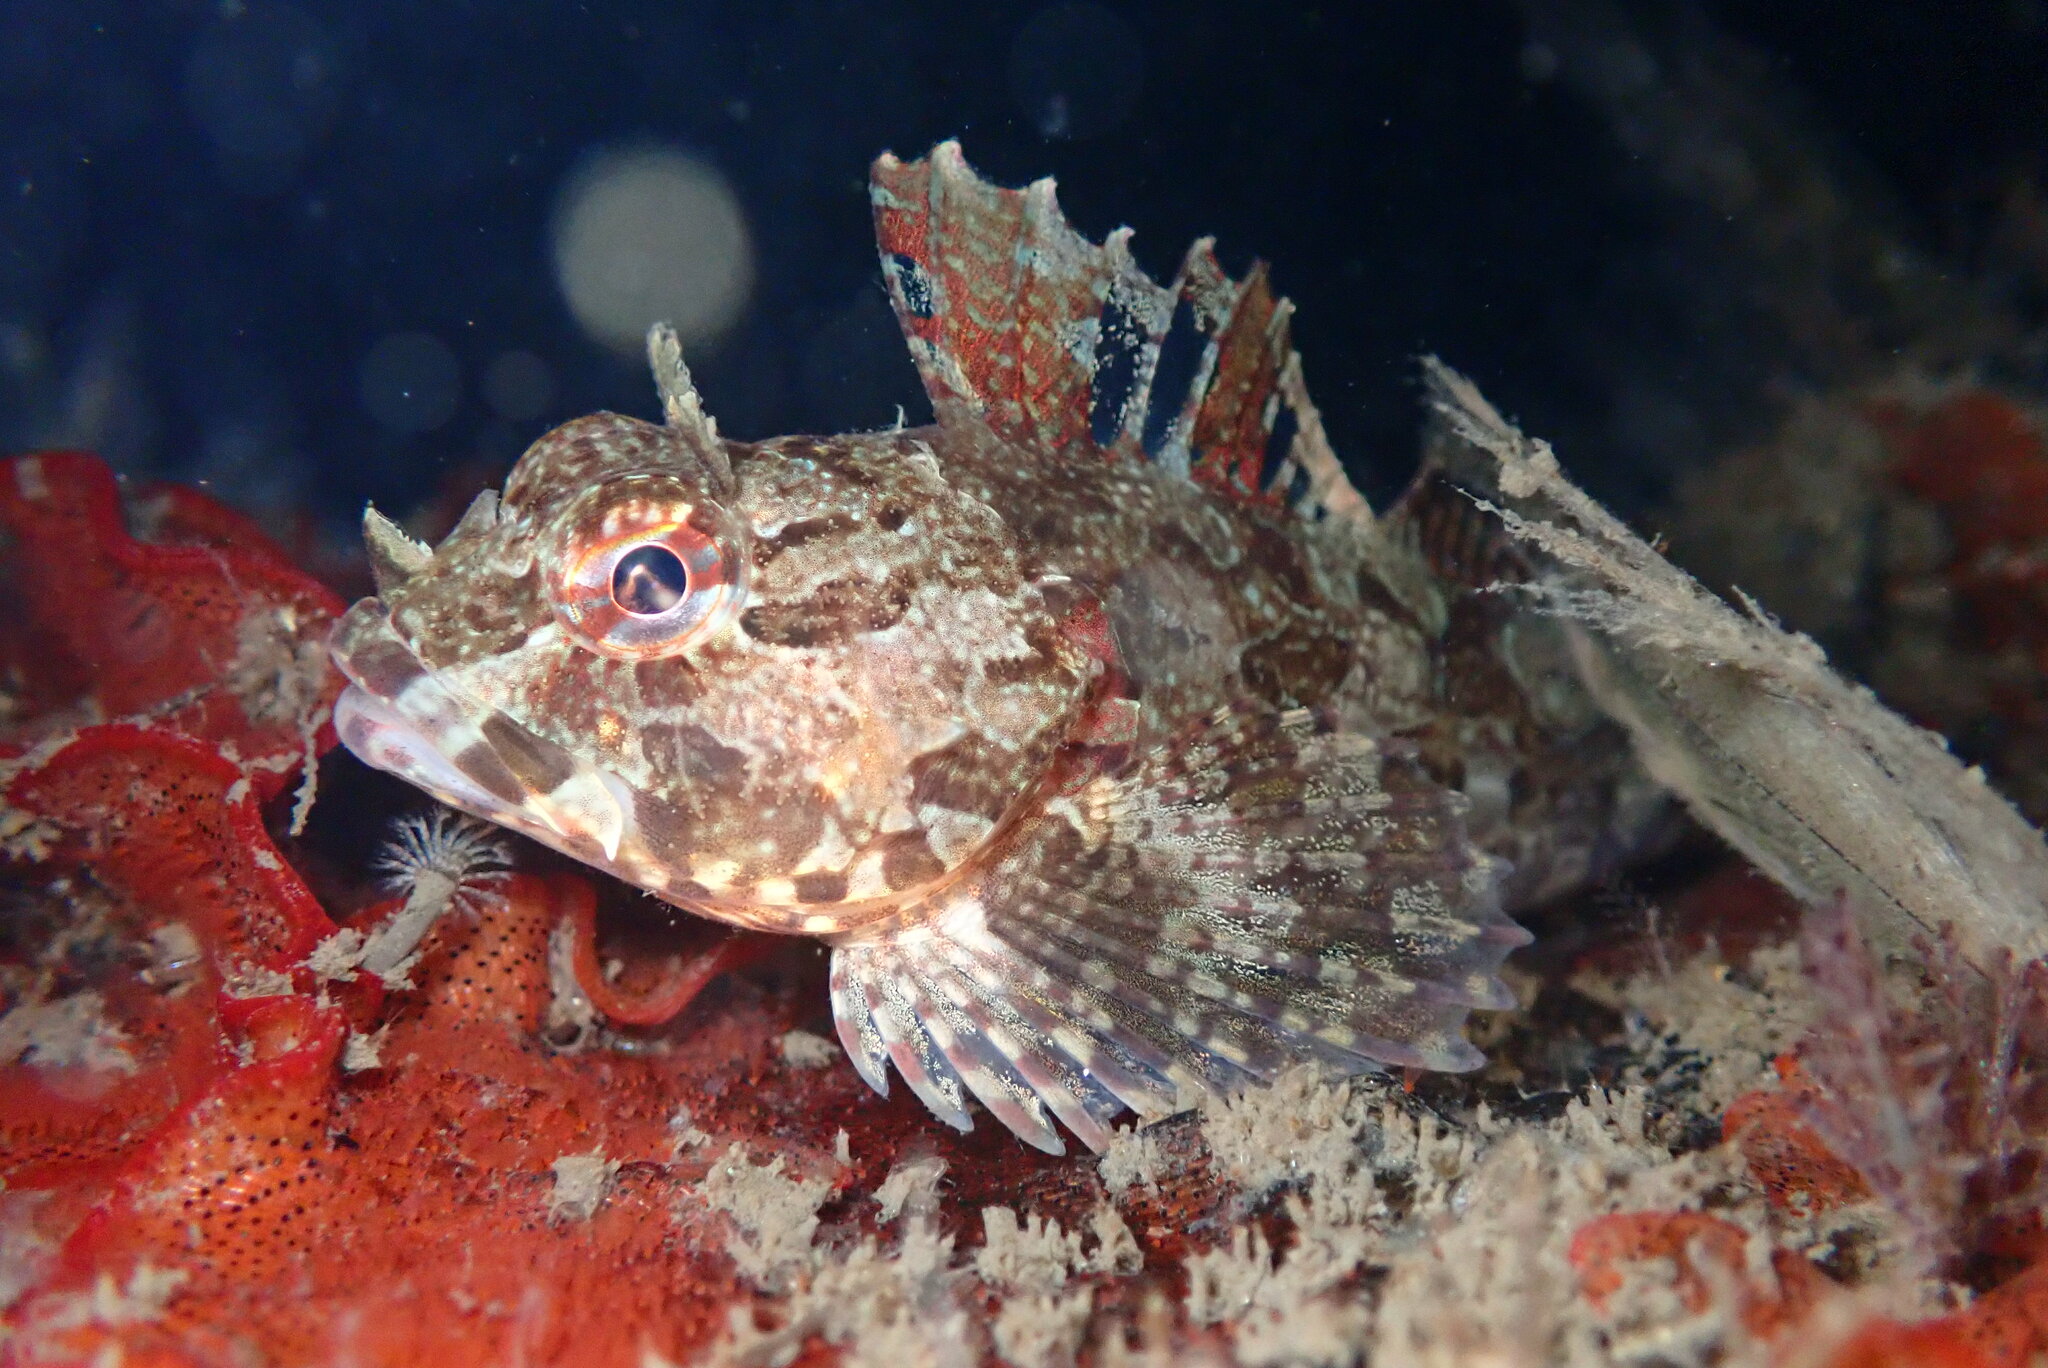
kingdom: Animalia
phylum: Chordata
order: Scorpaeniformes
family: Cottidae
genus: Scorpaenichthys
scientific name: Scorpaenichthys marmoratus
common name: Cabezon
